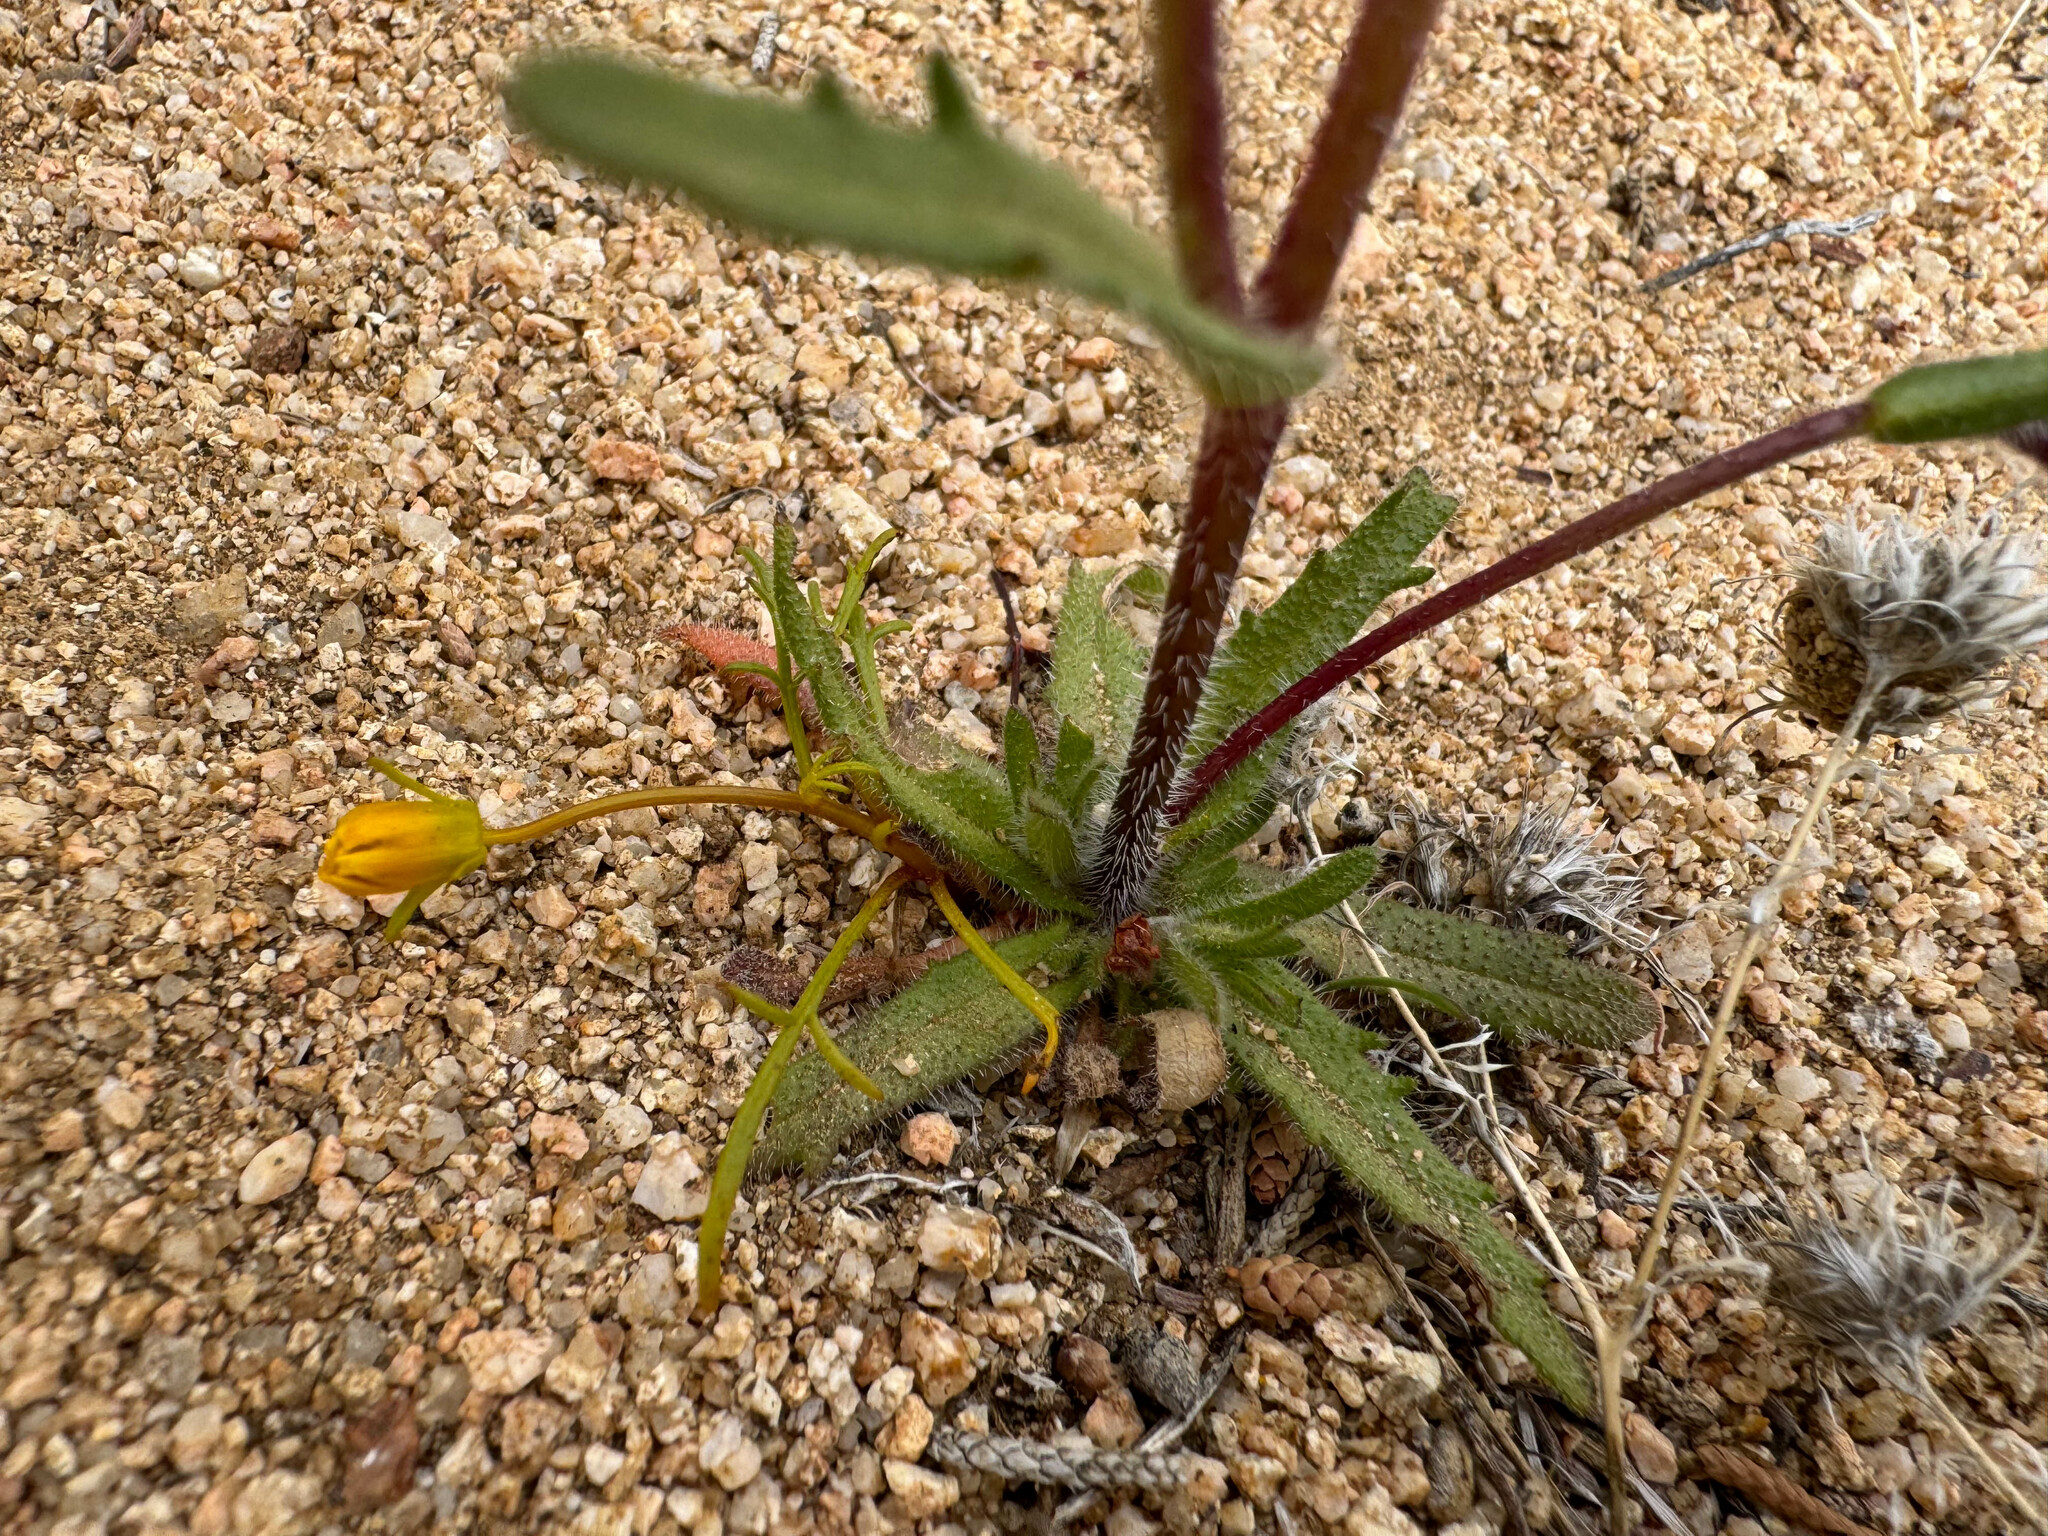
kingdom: Plantae
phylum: Tracheophyta
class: Magnoliopsida
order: Asterales
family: Asteraceae
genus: Layia
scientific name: Layia glandulosa
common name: White layia
